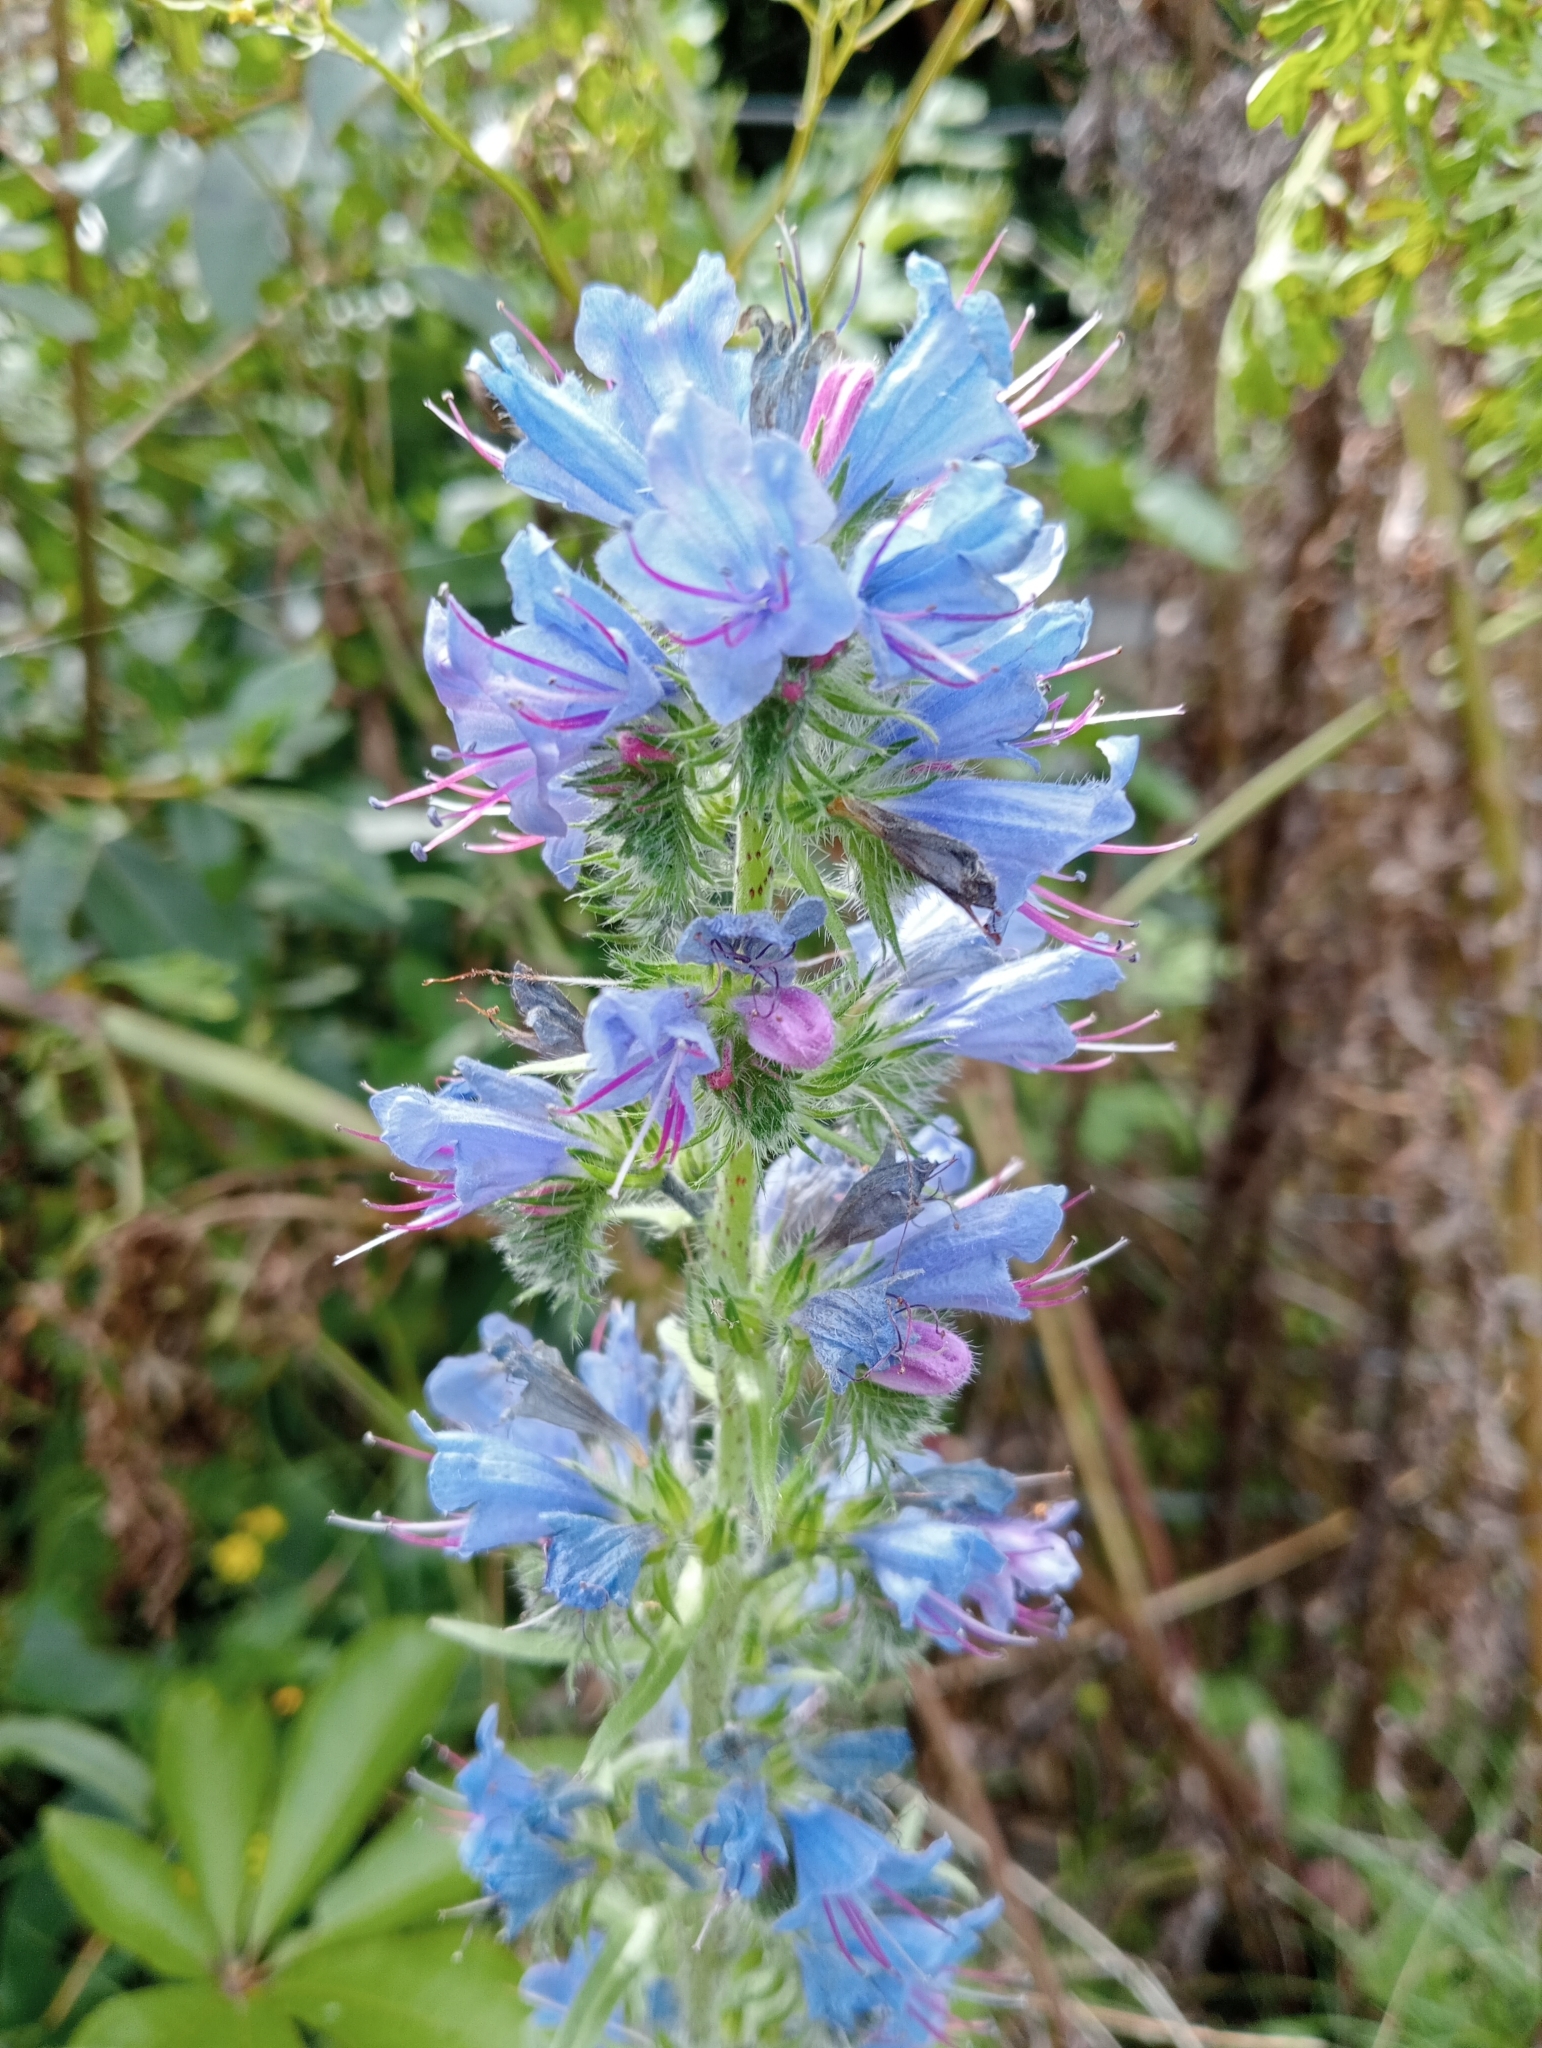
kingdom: Plantae
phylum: Tracheophyta
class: Magnoliopsida
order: Boraginales
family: Boraginaceae
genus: Echium
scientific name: Echium vulgare
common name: Common viper's bugloss
